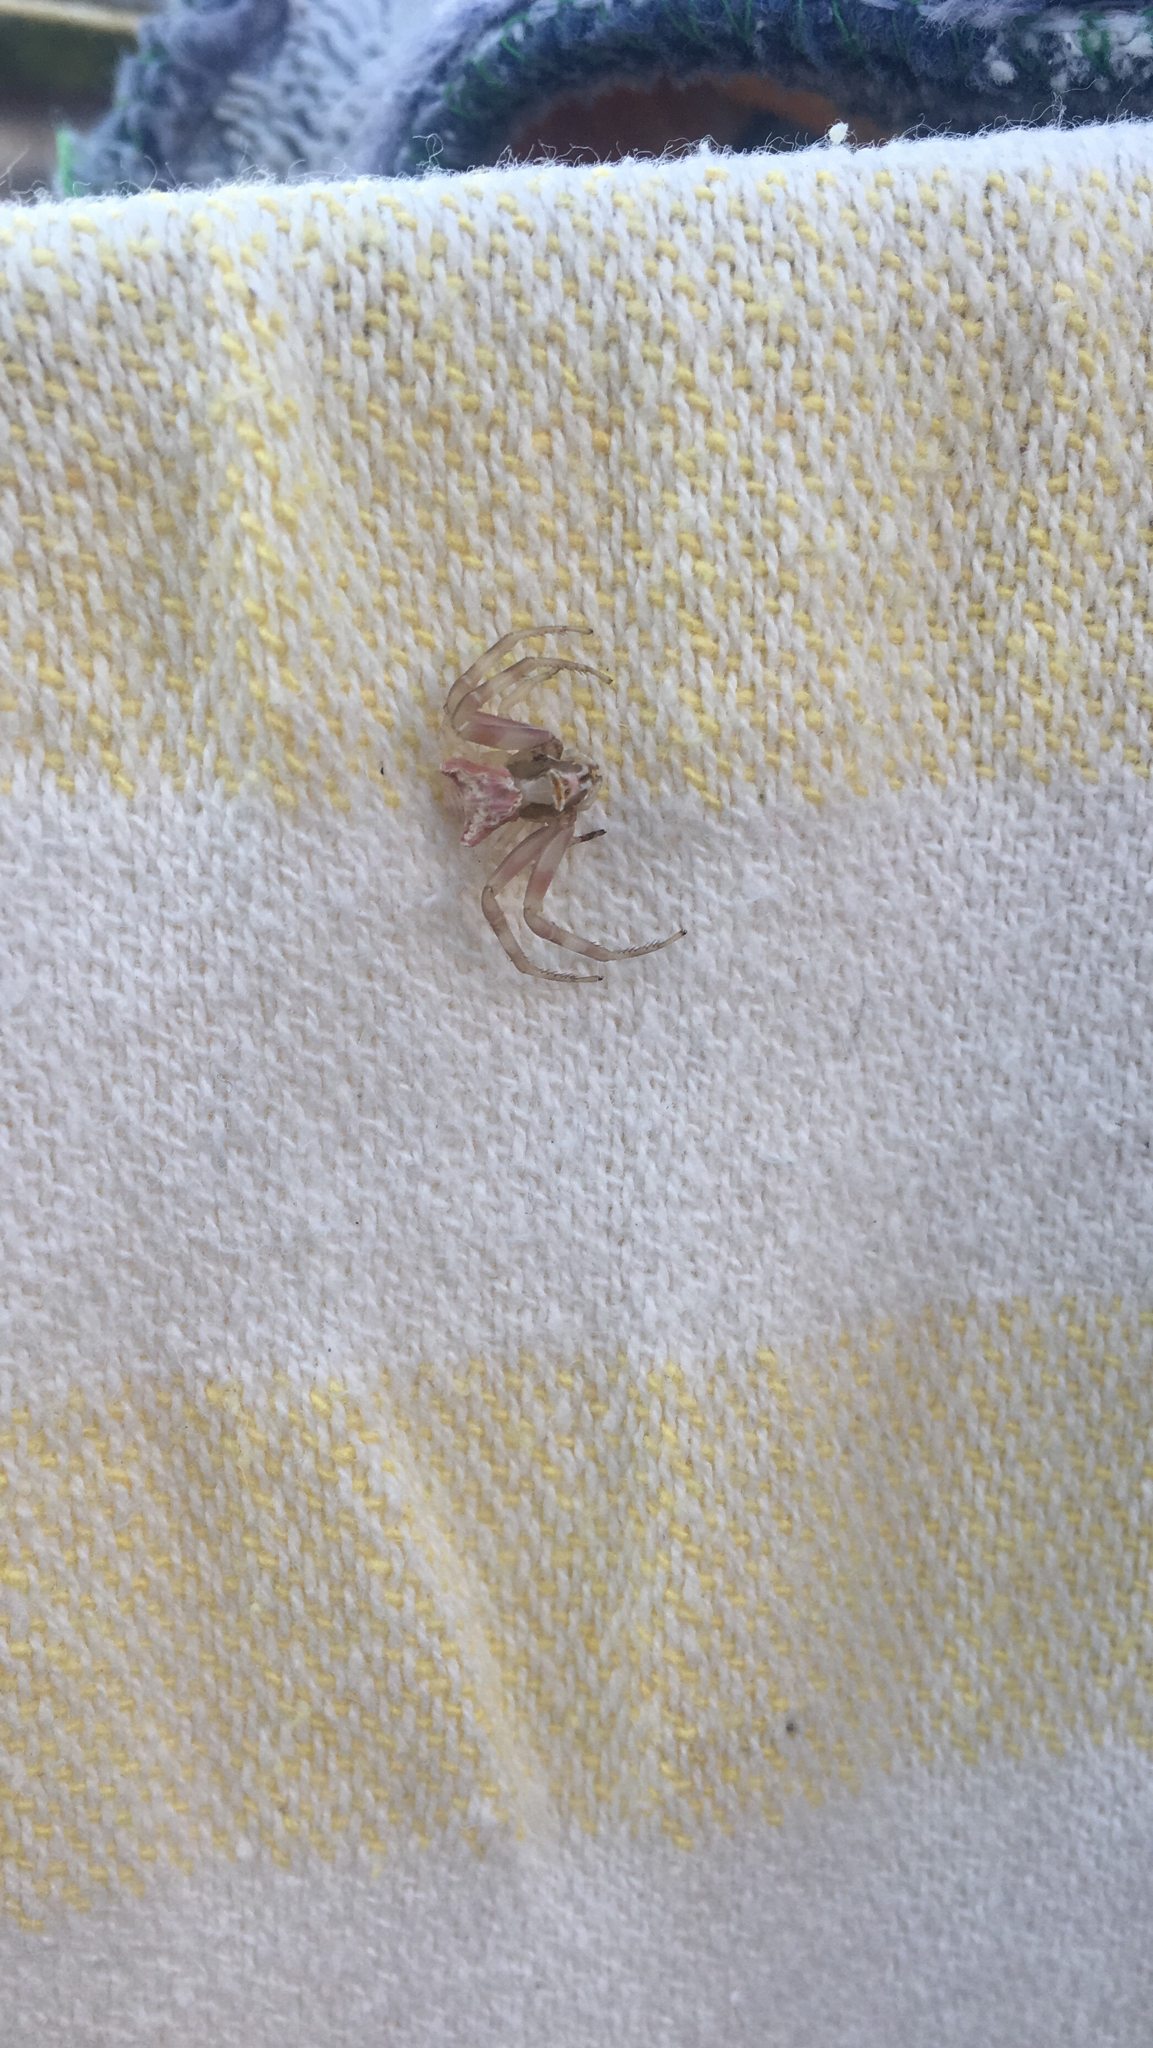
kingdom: Animalia
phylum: Arthropoda
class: Arachnida
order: Araneae
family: Thomisidae
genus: Thomisus
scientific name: Thomisus onustus
